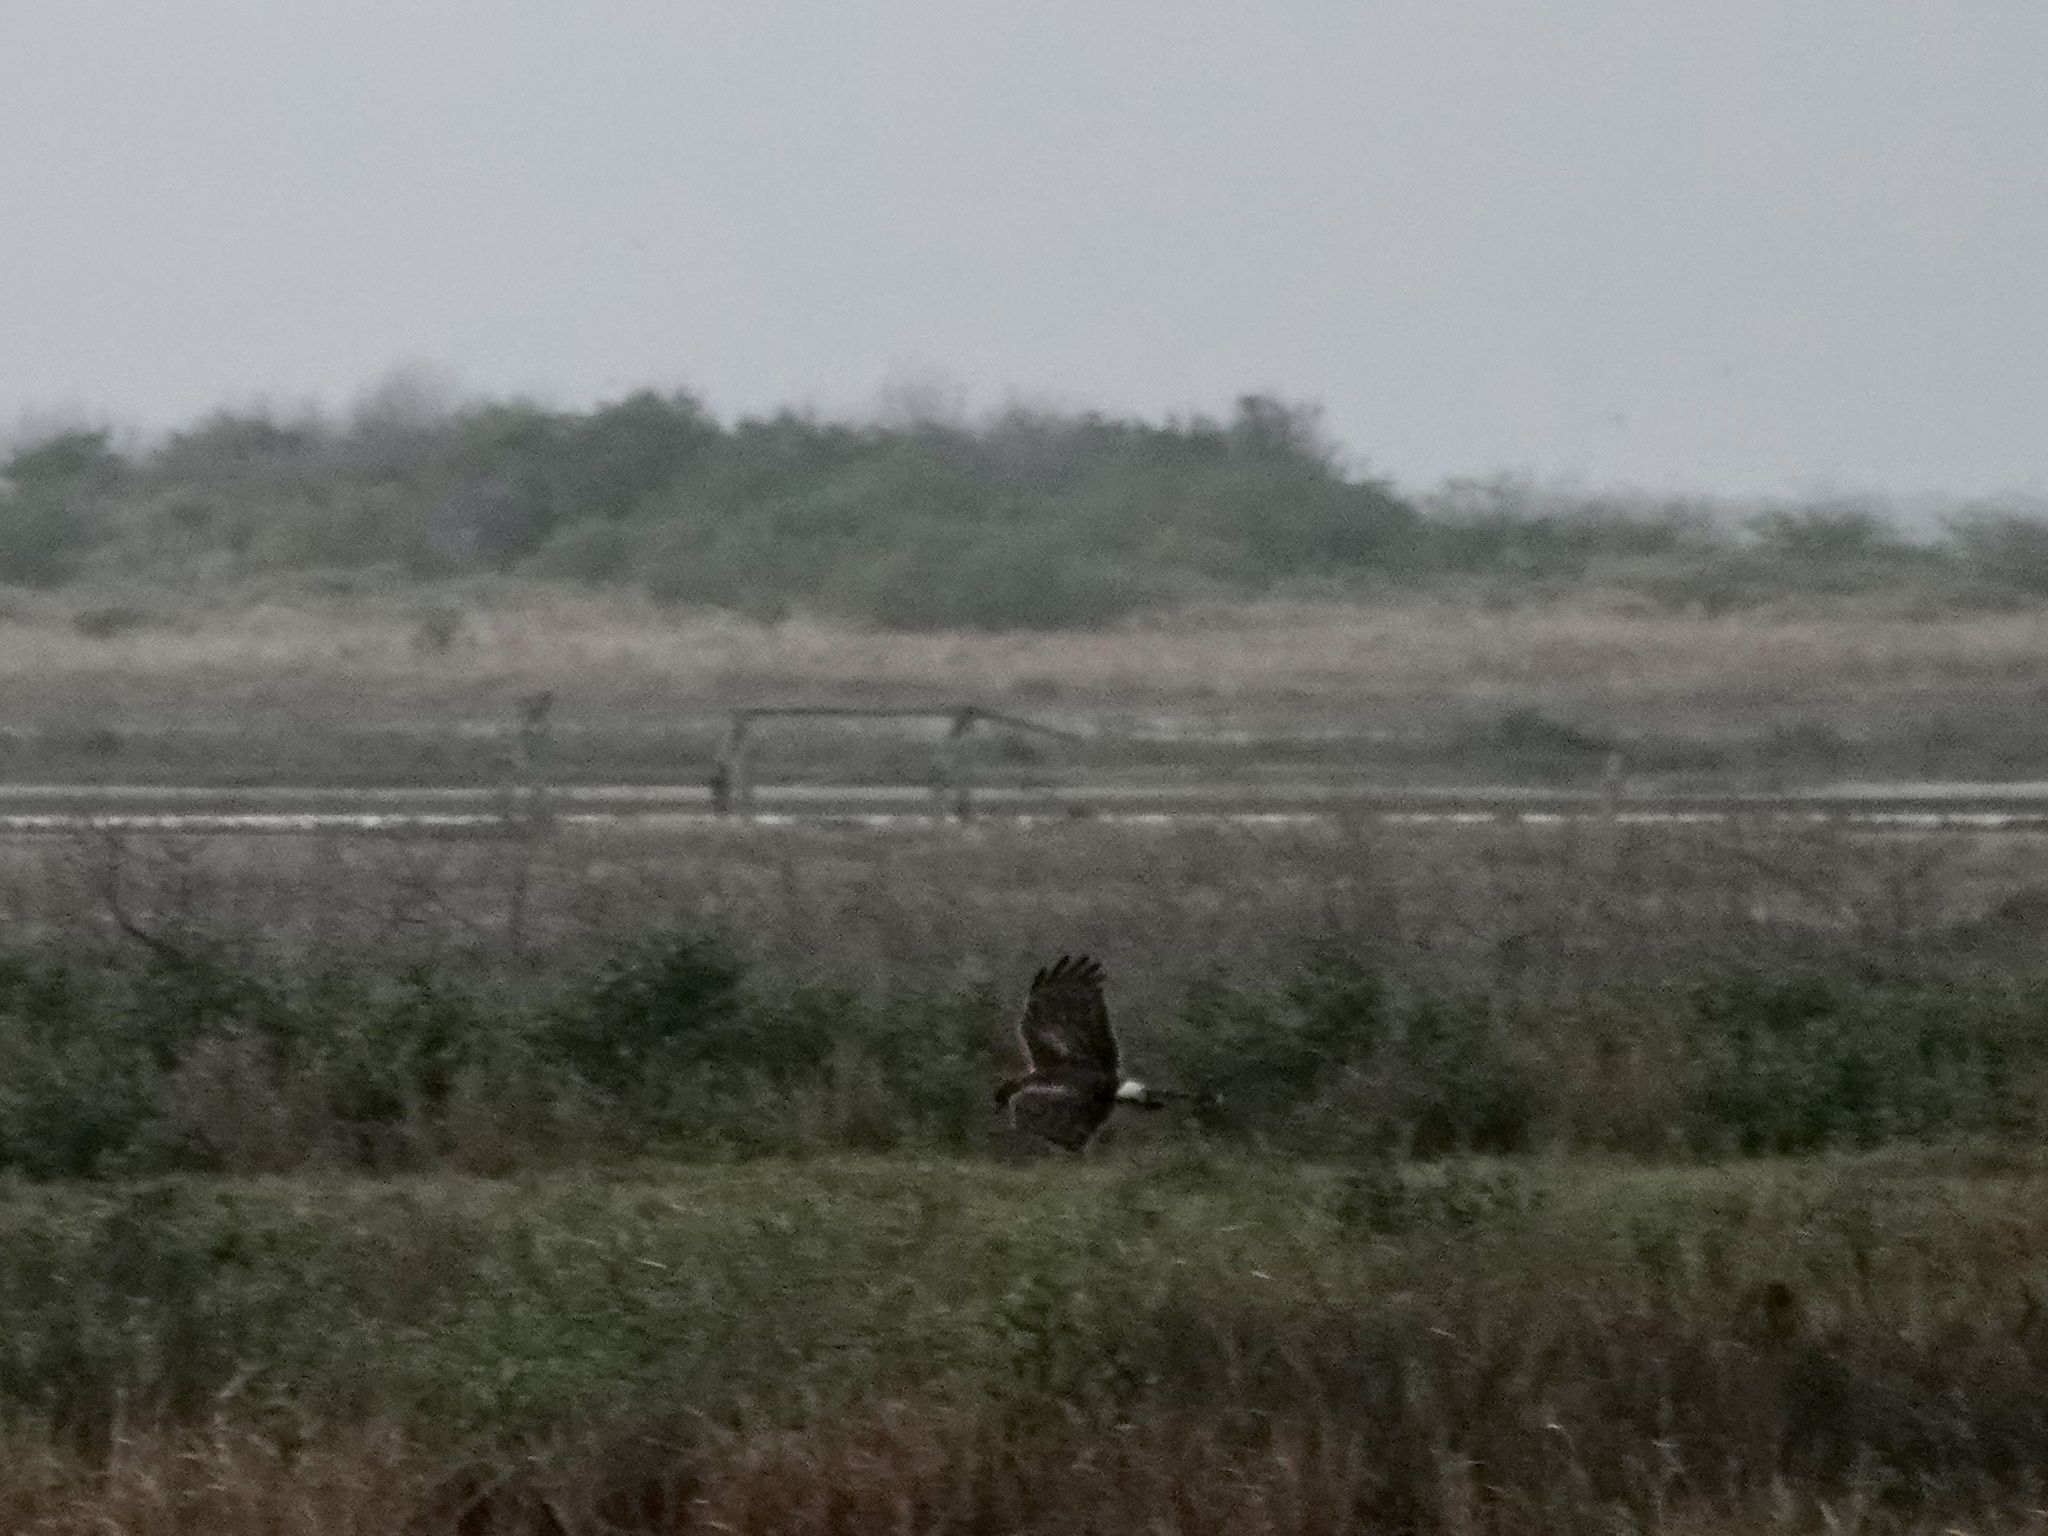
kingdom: Animalia
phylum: Chordata
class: Aves
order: Accipitriformes
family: Accipitridae
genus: Circus
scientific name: Circus cyaneus
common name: Hen harrier
